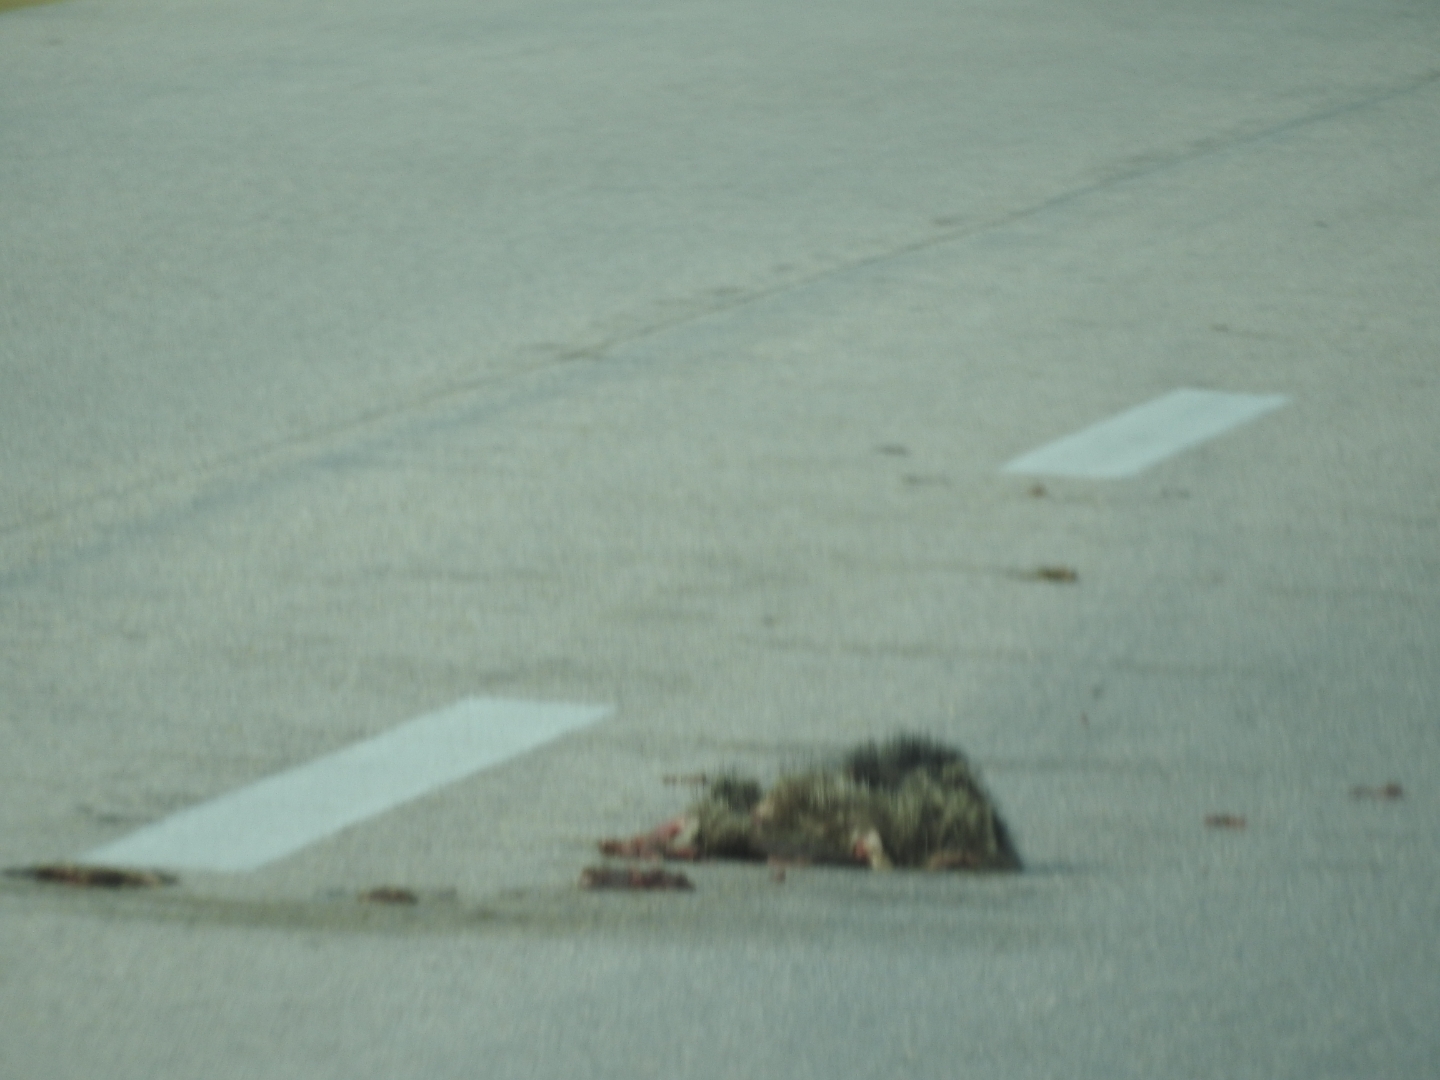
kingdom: Animalia
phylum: Chordata
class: Mammalia
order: Didelphimorphia
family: Didelphidae
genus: Didelphis
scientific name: Didelphis
